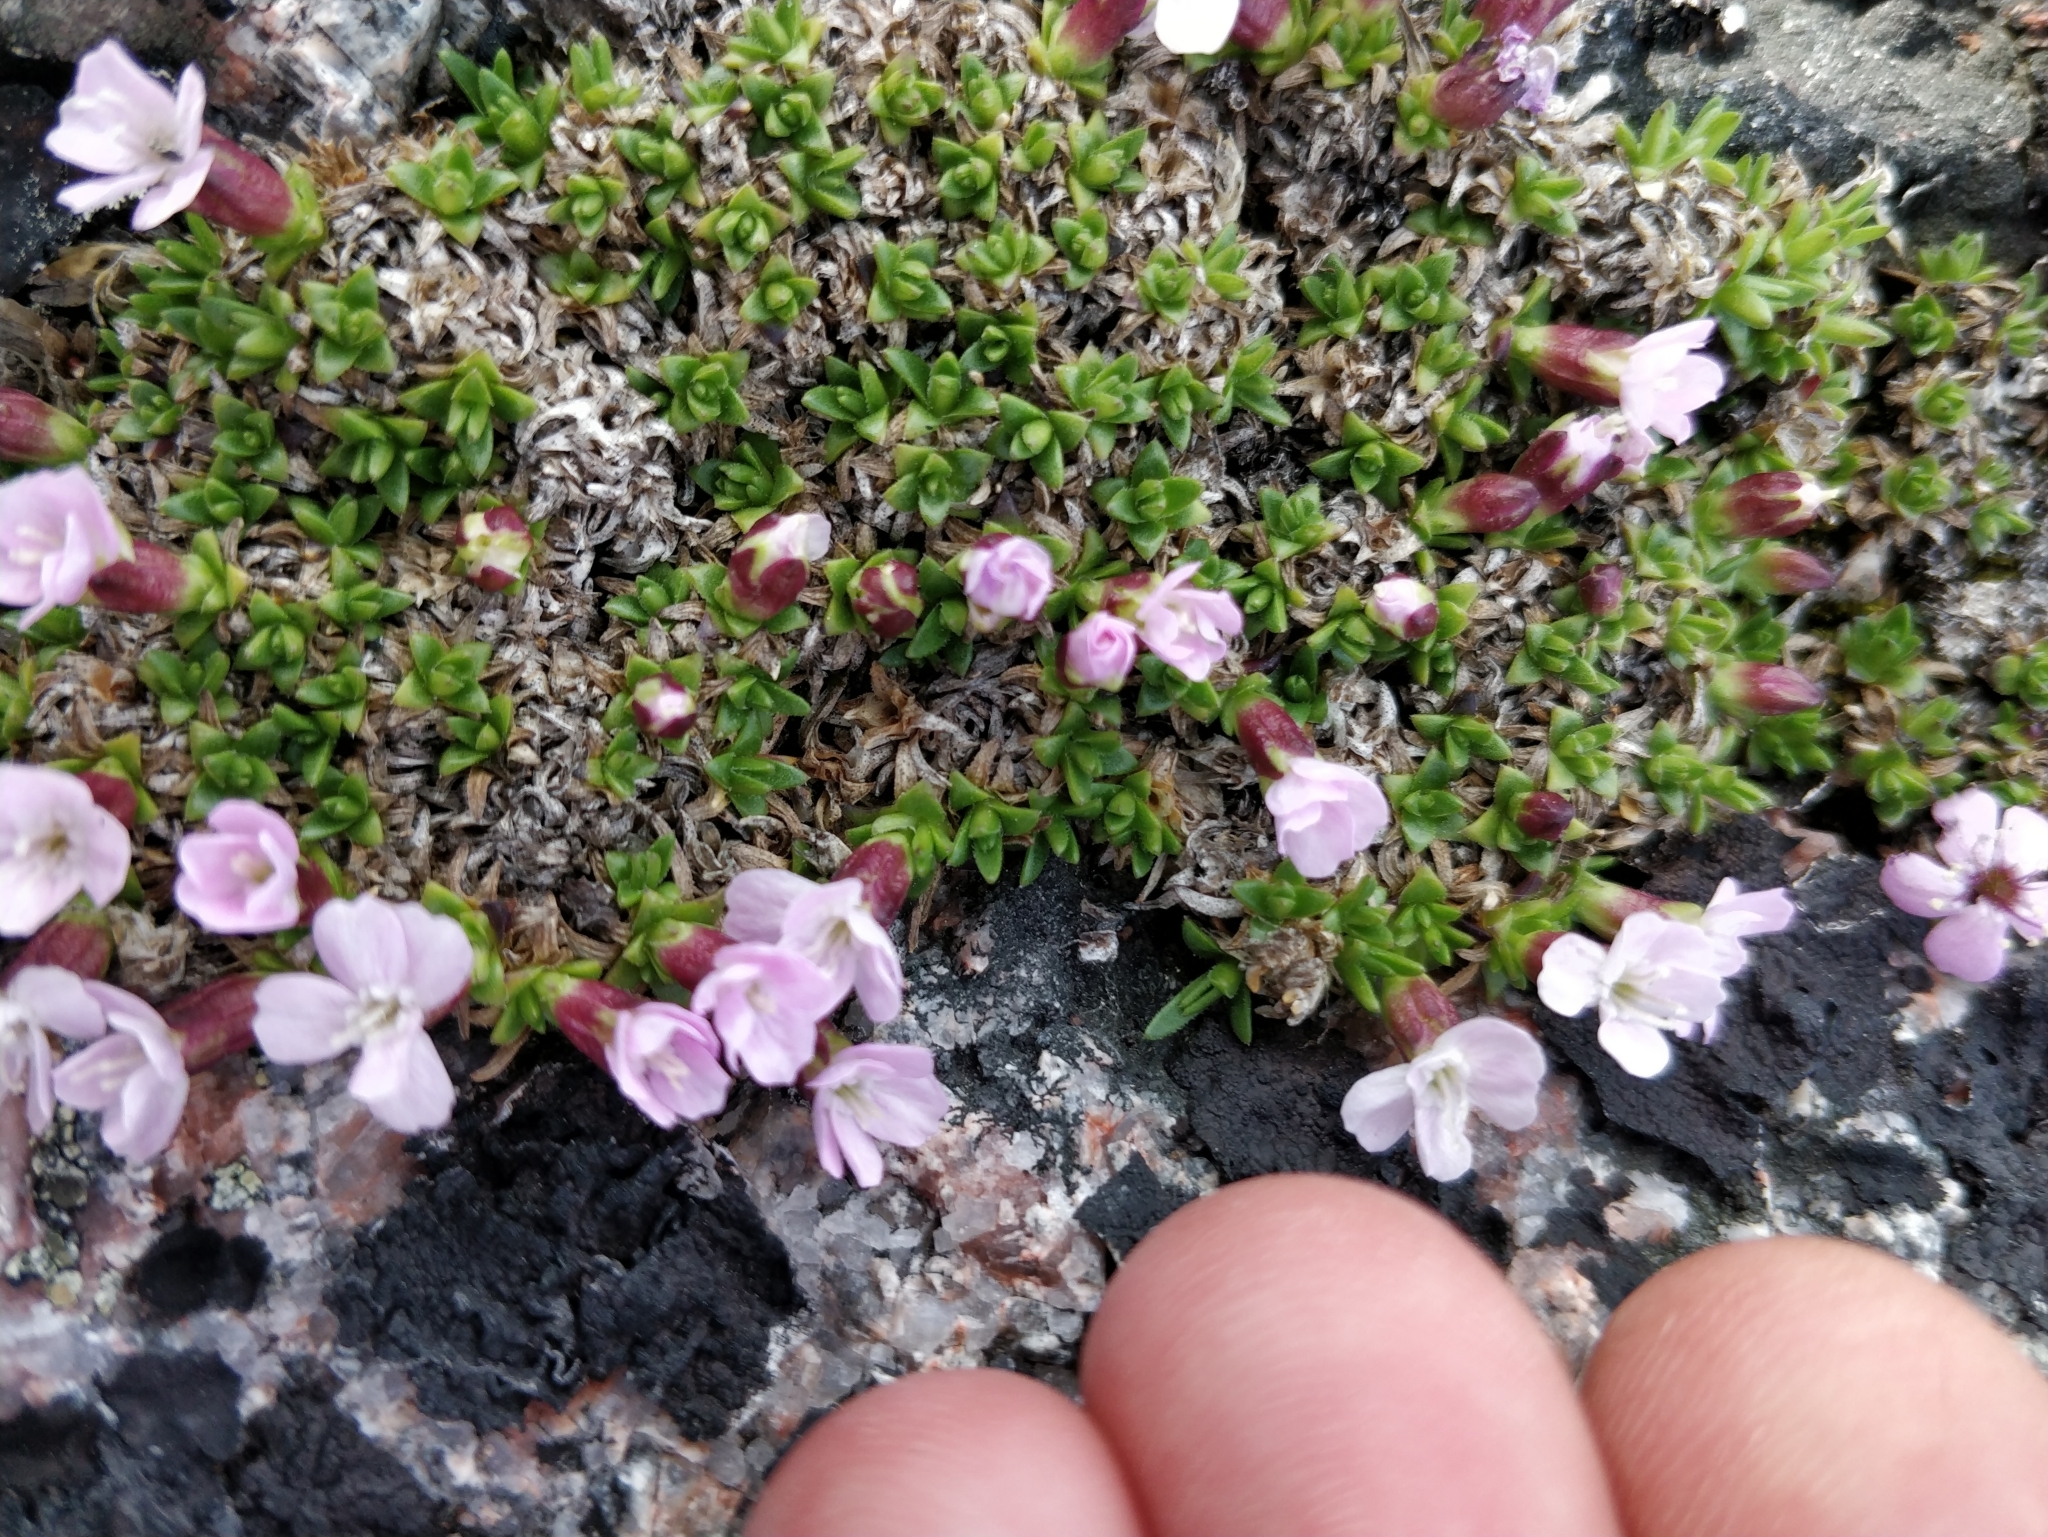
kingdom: Plantae
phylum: Tracheophyta
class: Magnoliopsida
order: Caryophyllales
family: Caryophyllaceae
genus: Silene
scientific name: Silene acaulis
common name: Moss campion
